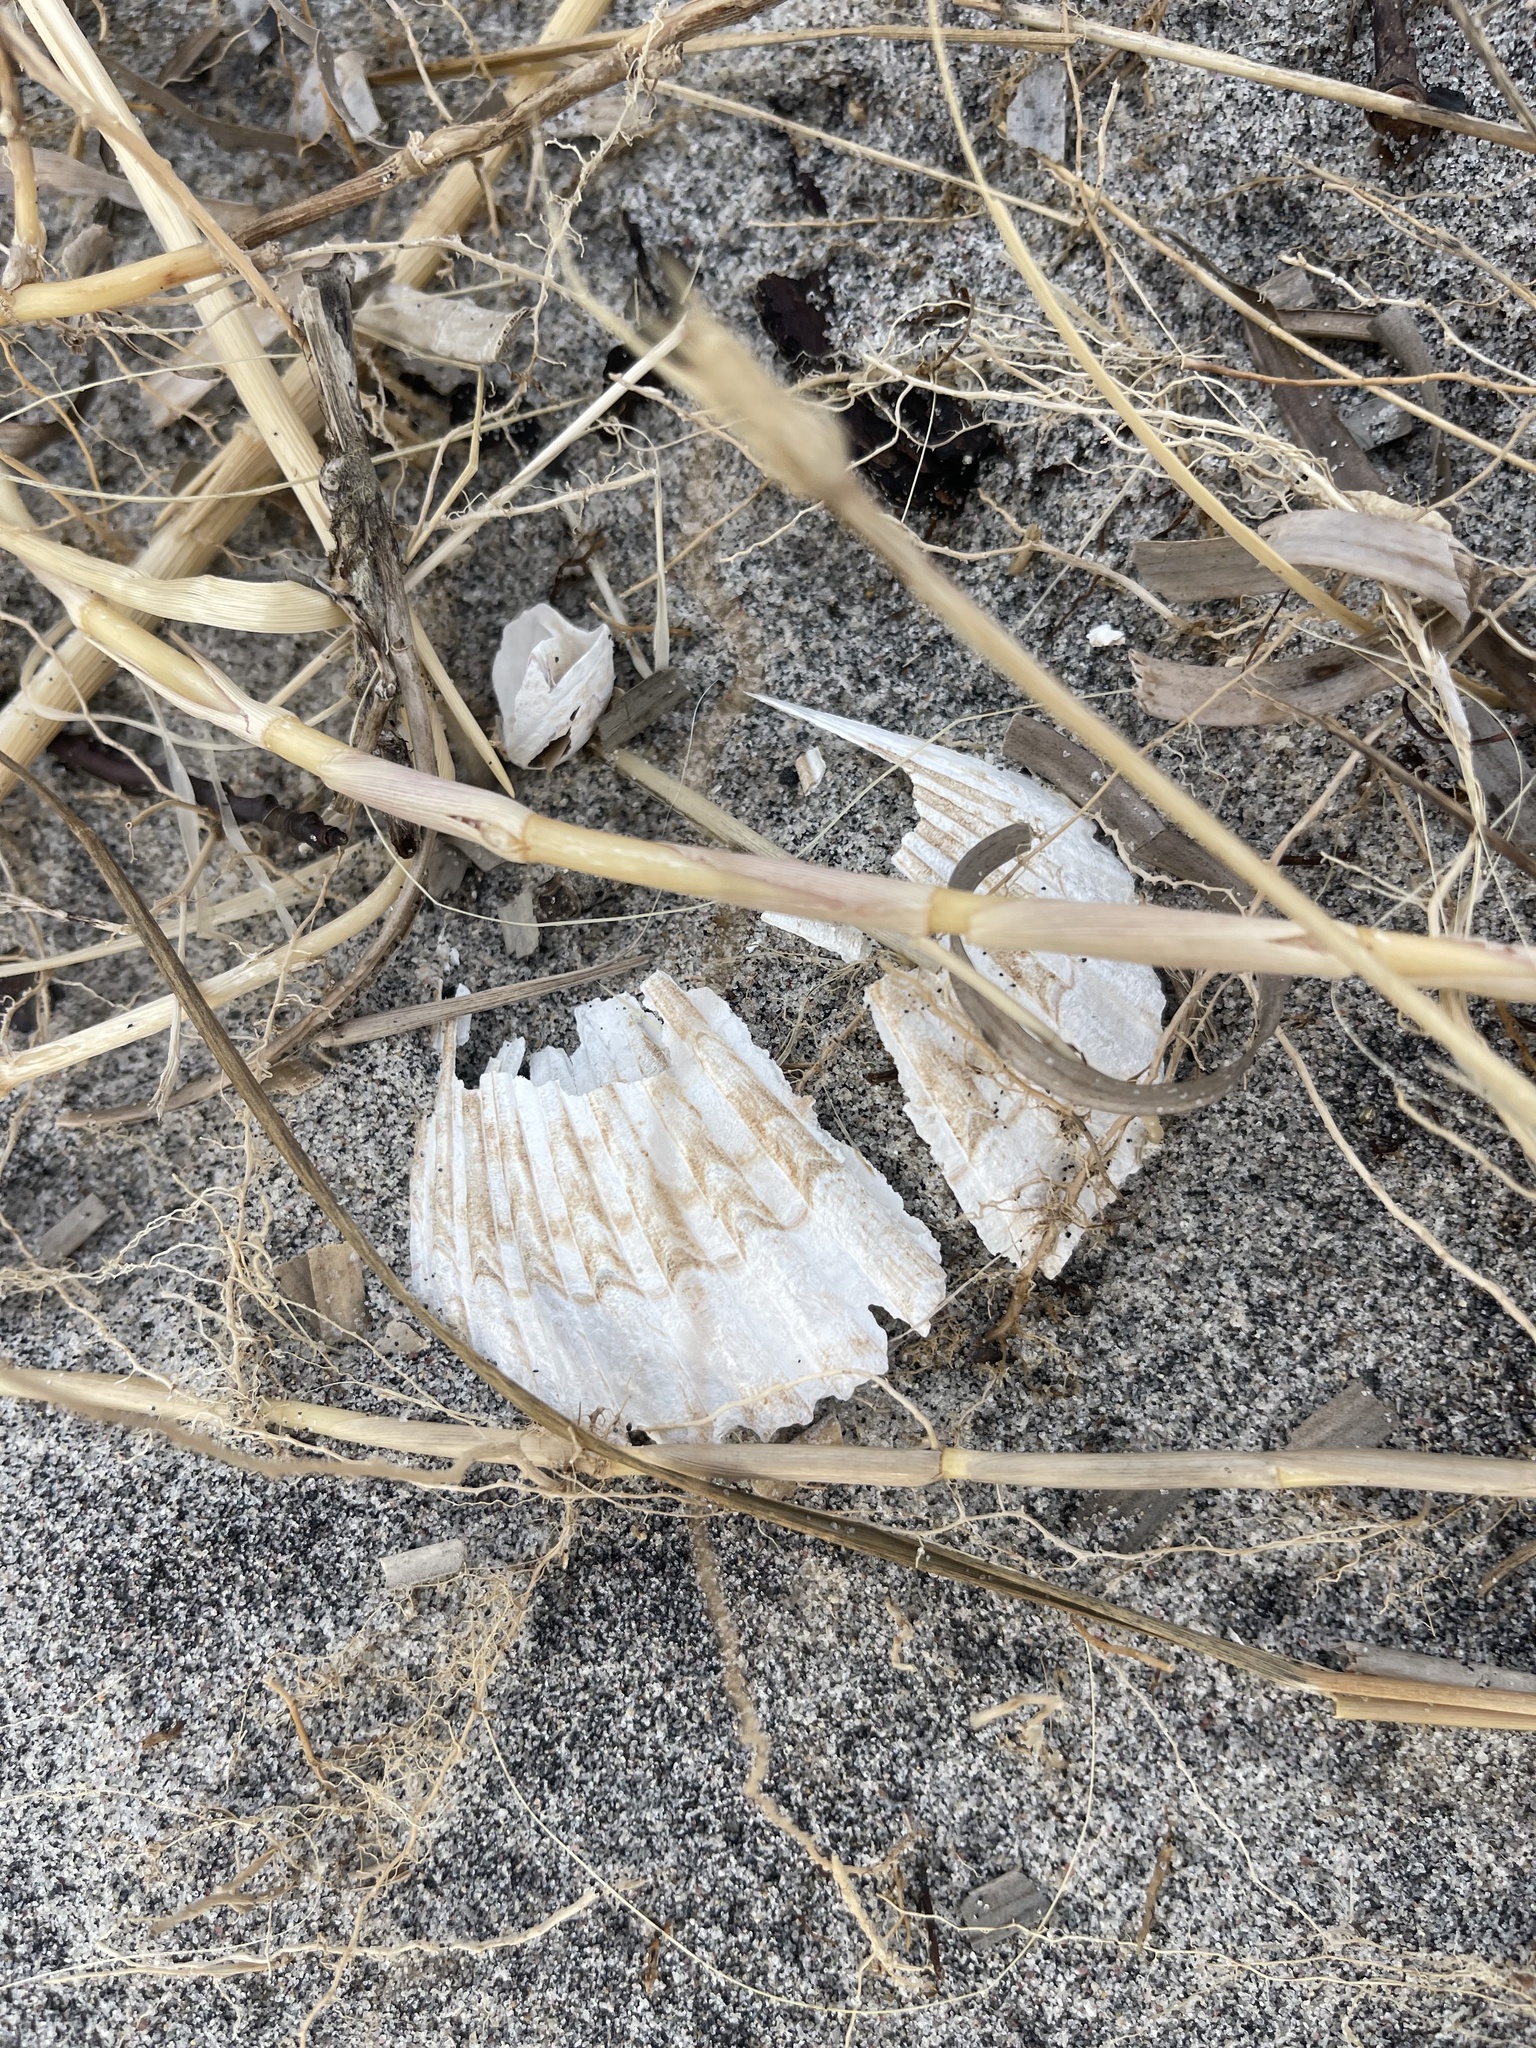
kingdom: Animalia
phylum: Mollusca
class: Bivalvia
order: Pectinida
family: Pectinidae
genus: Argopecten
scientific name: Argopecten irradians
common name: Atlantic bay scallop
